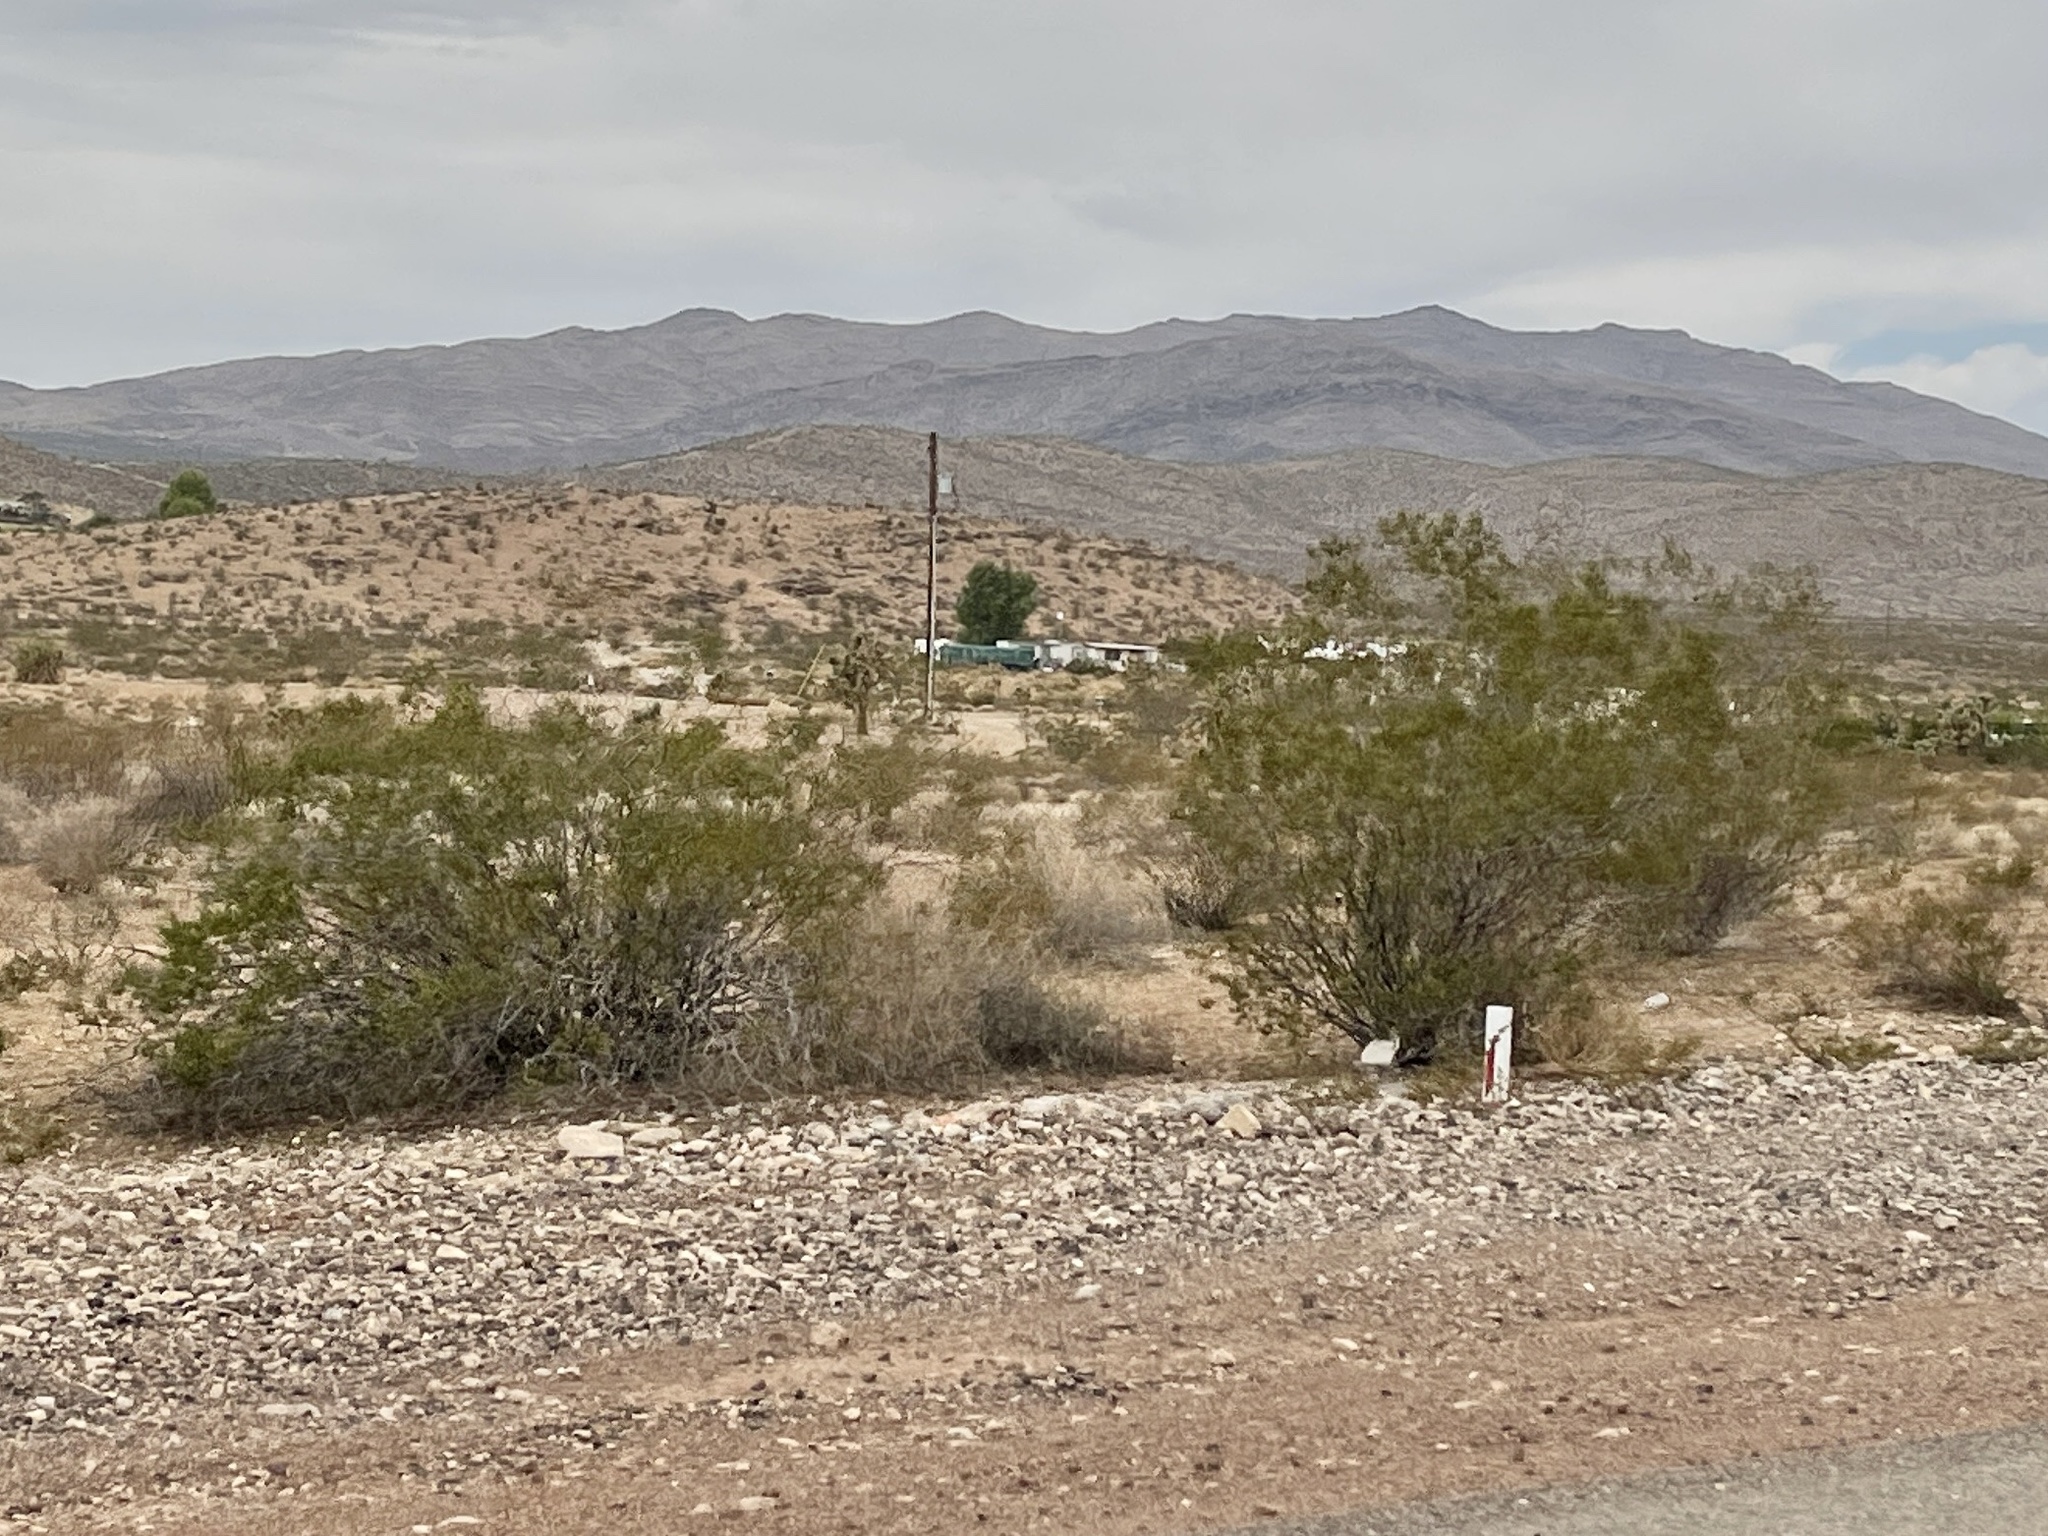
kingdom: Plantae
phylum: Tracheophyta
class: Magnoliopsida
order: Zygophyllales
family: Zygophyllaceae
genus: Larrea
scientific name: Larrea tridentata
